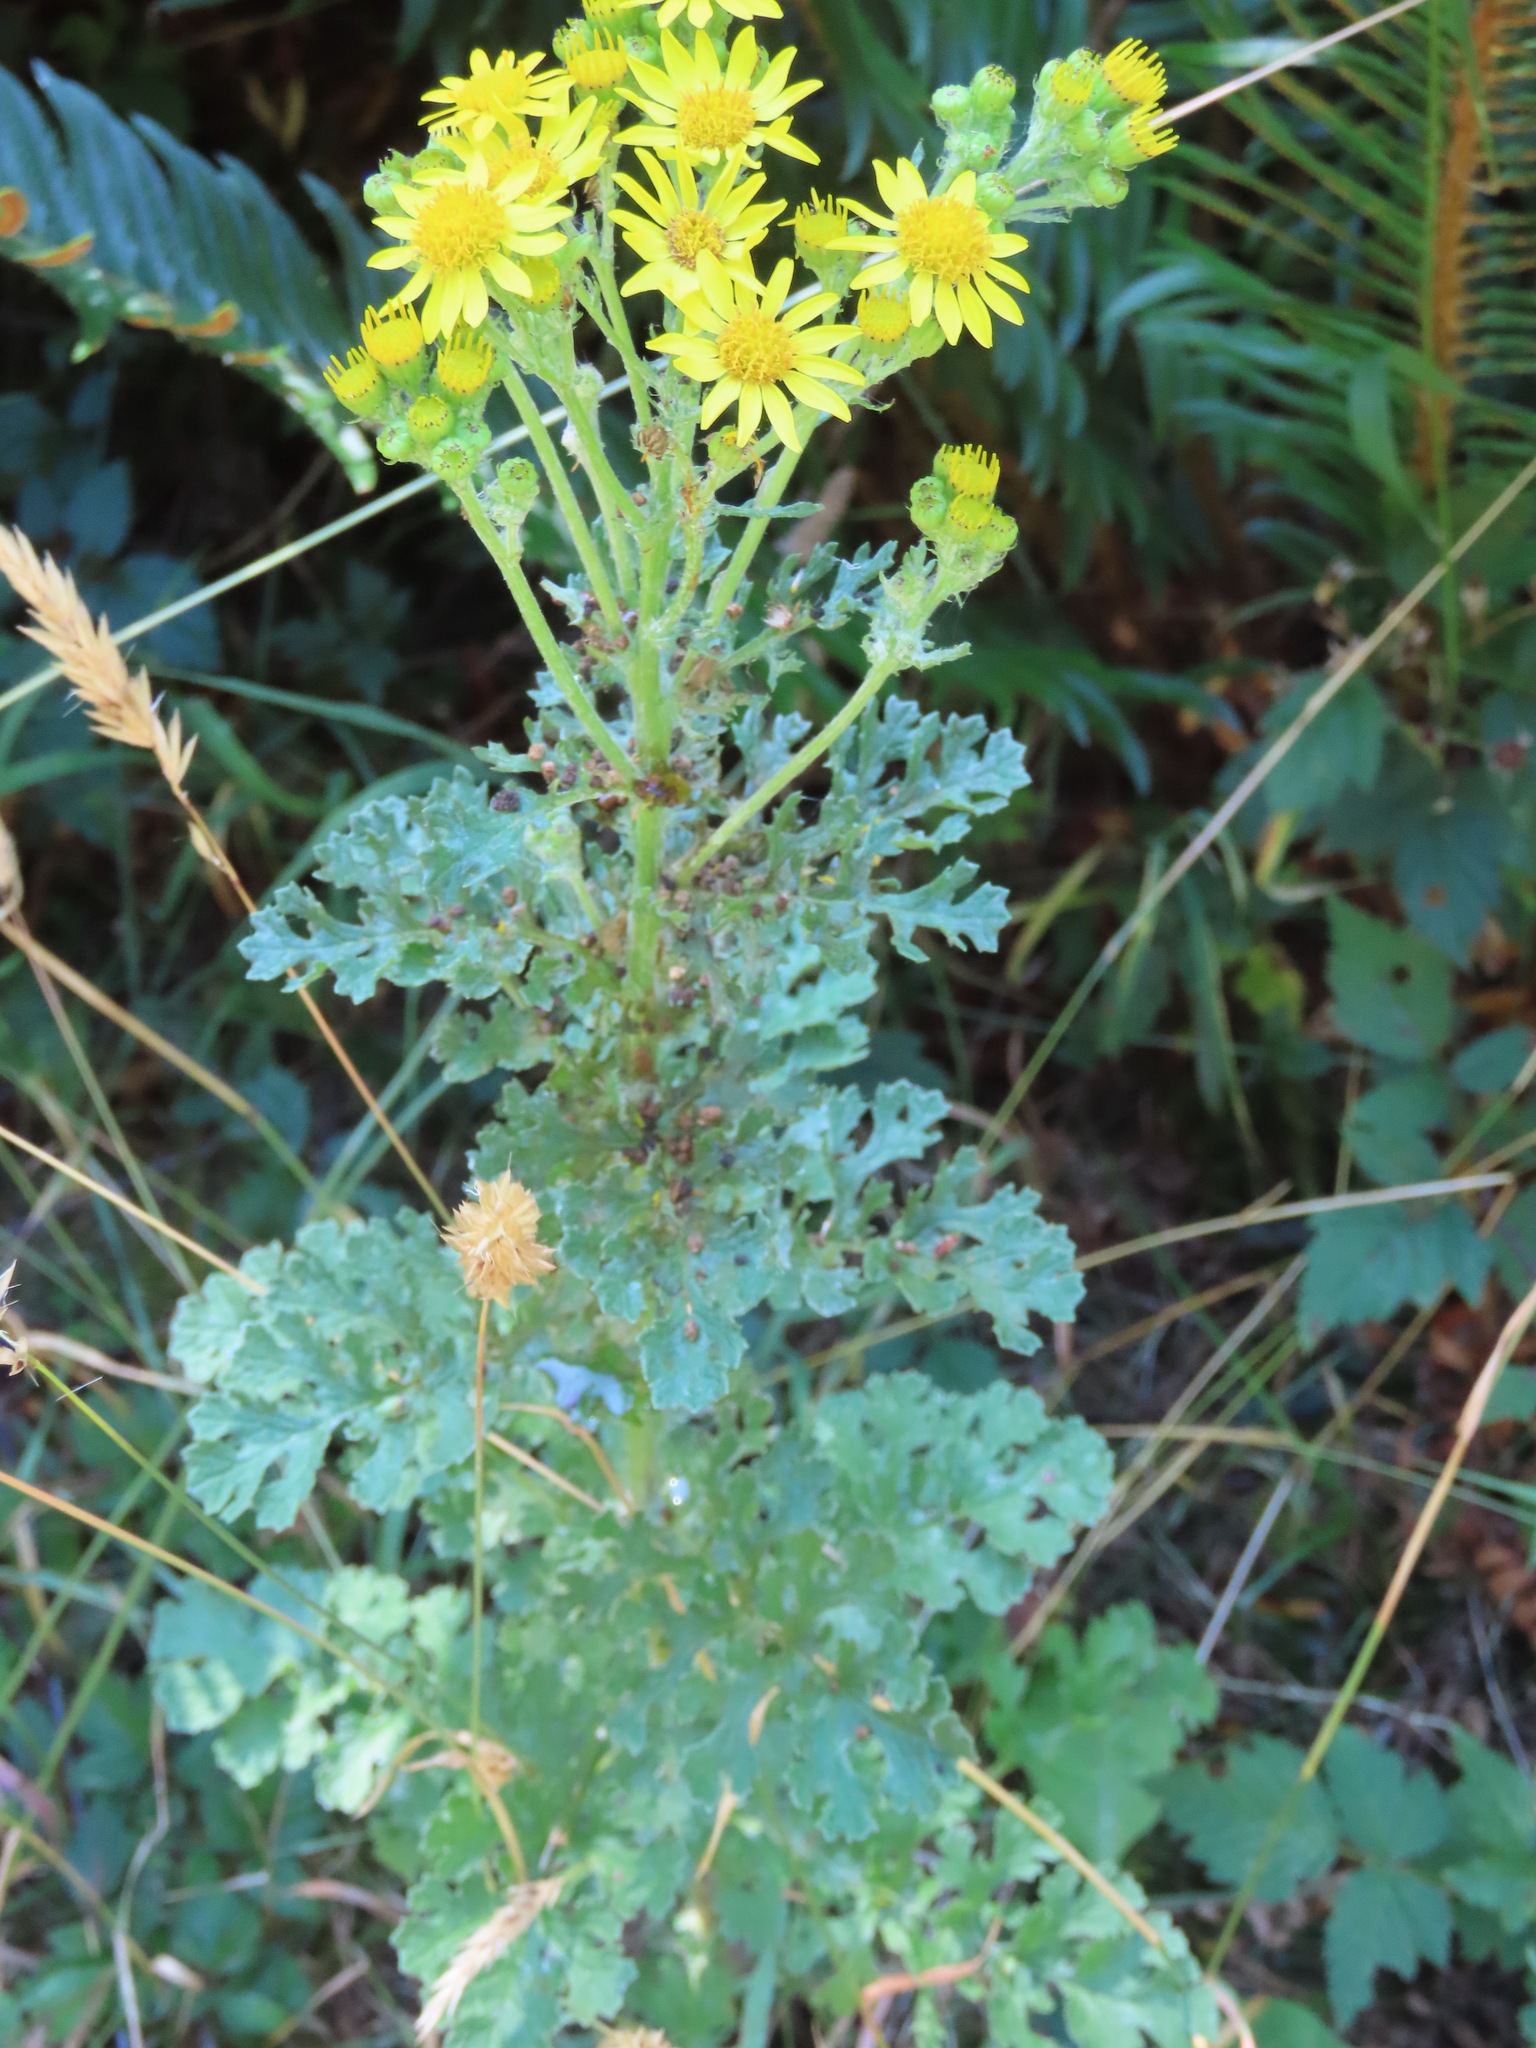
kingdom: Plantae
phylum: Tracheophyta
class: Magnoliopsida
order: Asterales
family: Asteraceae
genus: Jacobaea
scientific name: Jacobaea vulgaris
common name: Stinking willie
